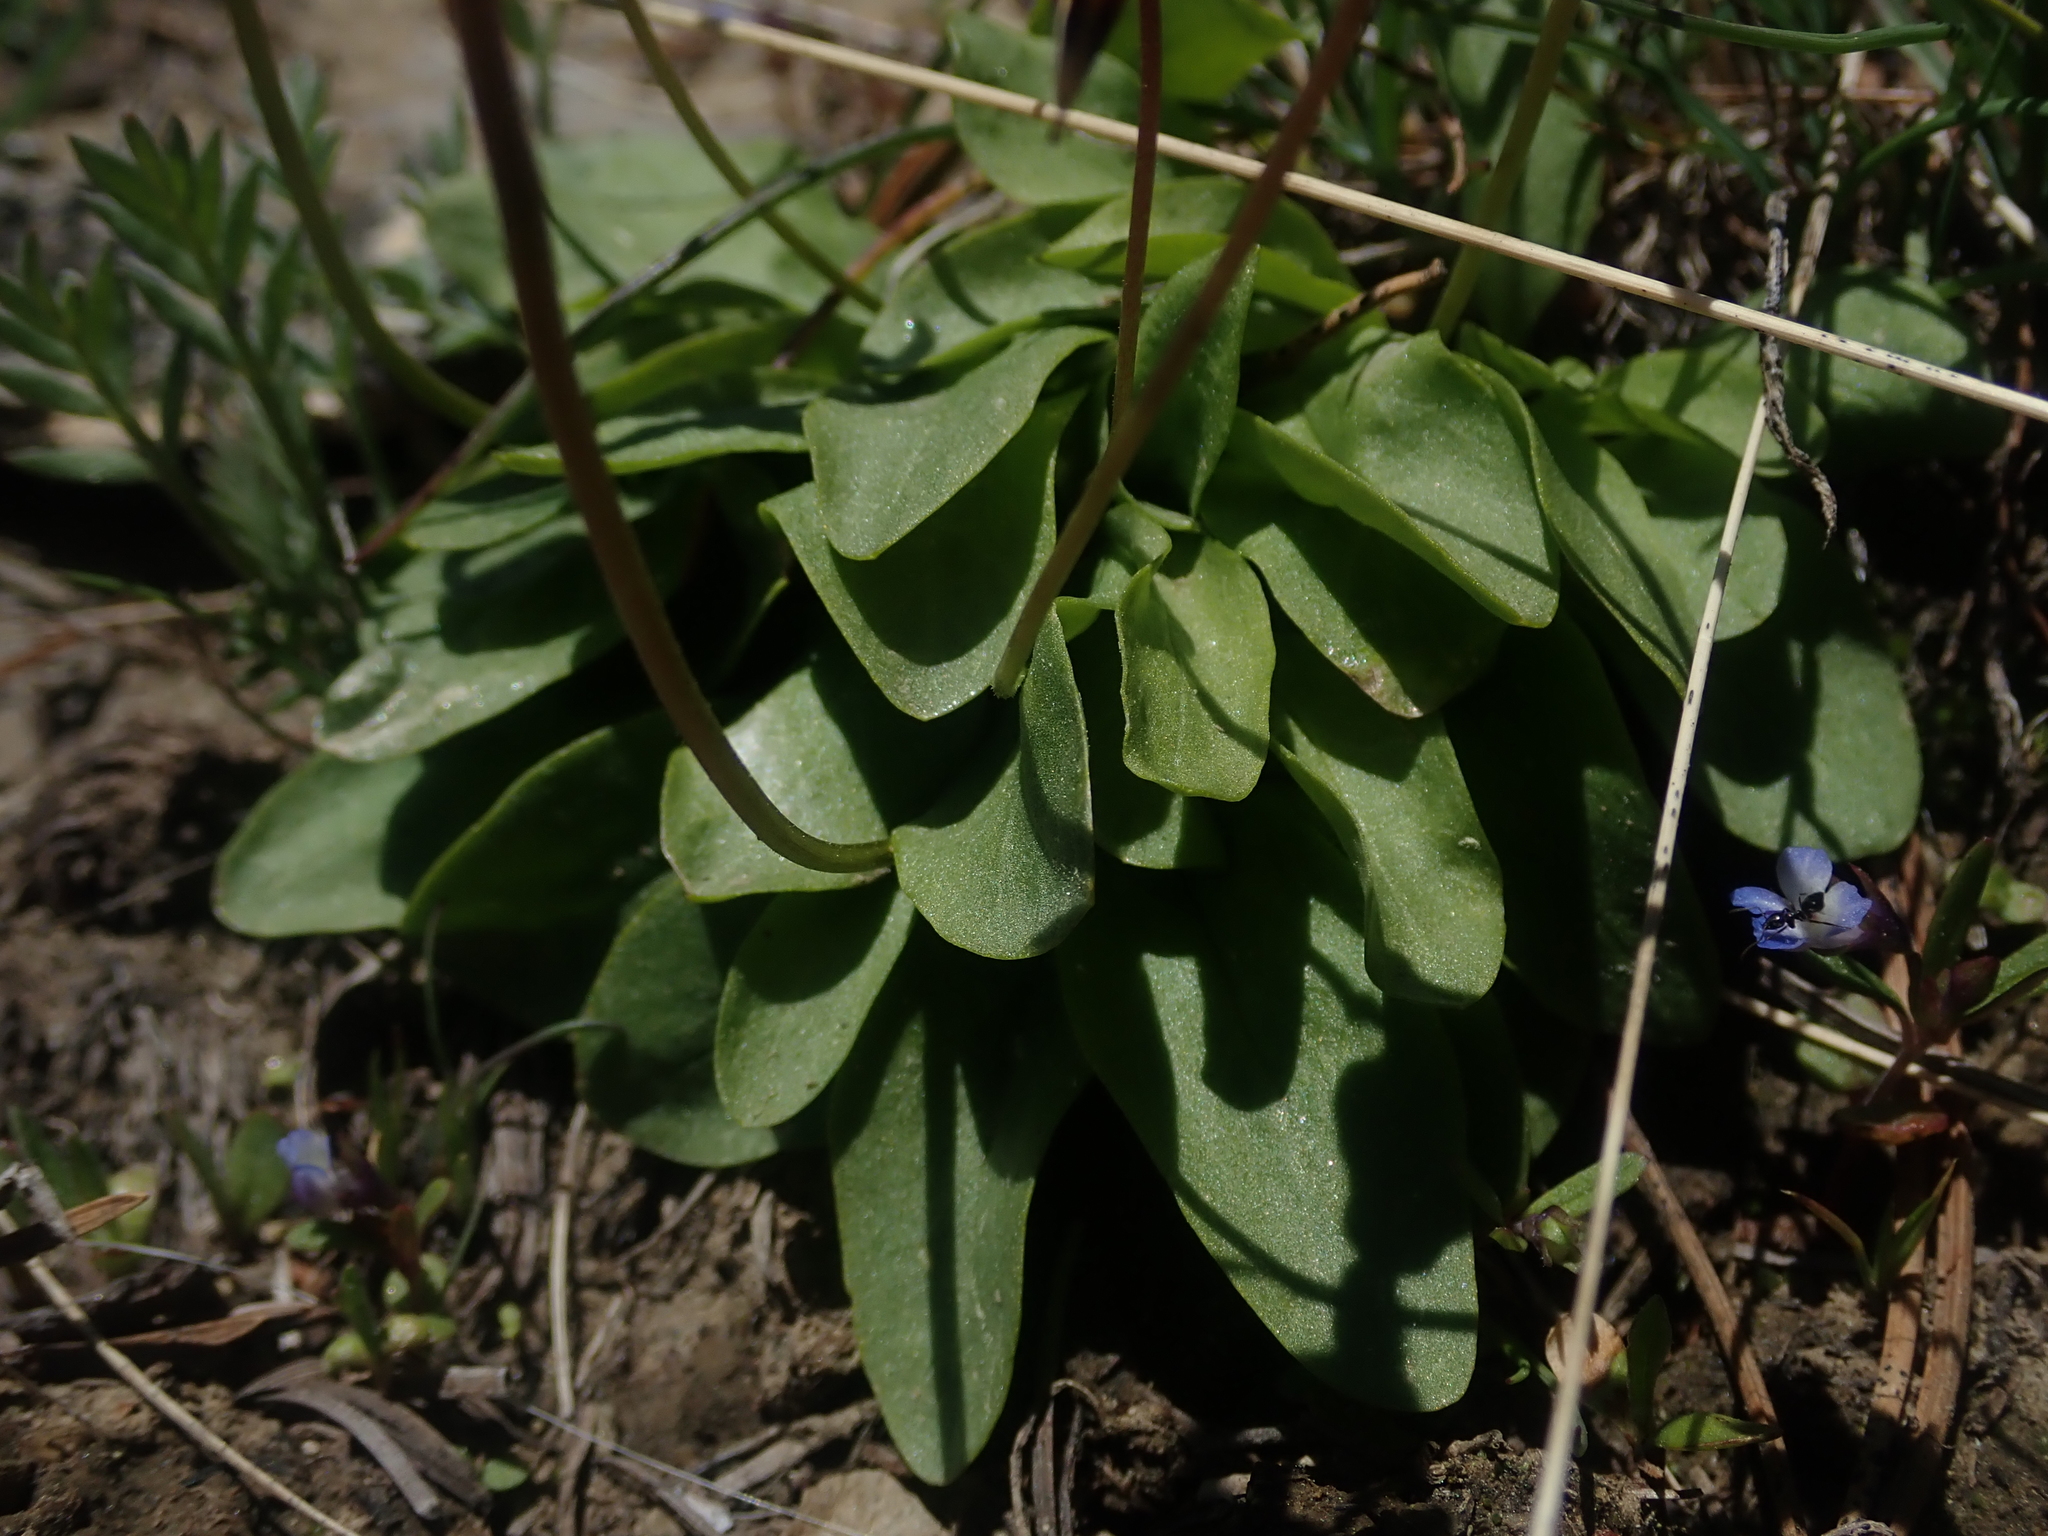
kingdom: Plantae
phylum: Tracheophyta
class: Magnoliopsida
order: Ericales
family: Primulaceae
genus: Dodecatheon
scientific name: Dodecatheon pulchellum
